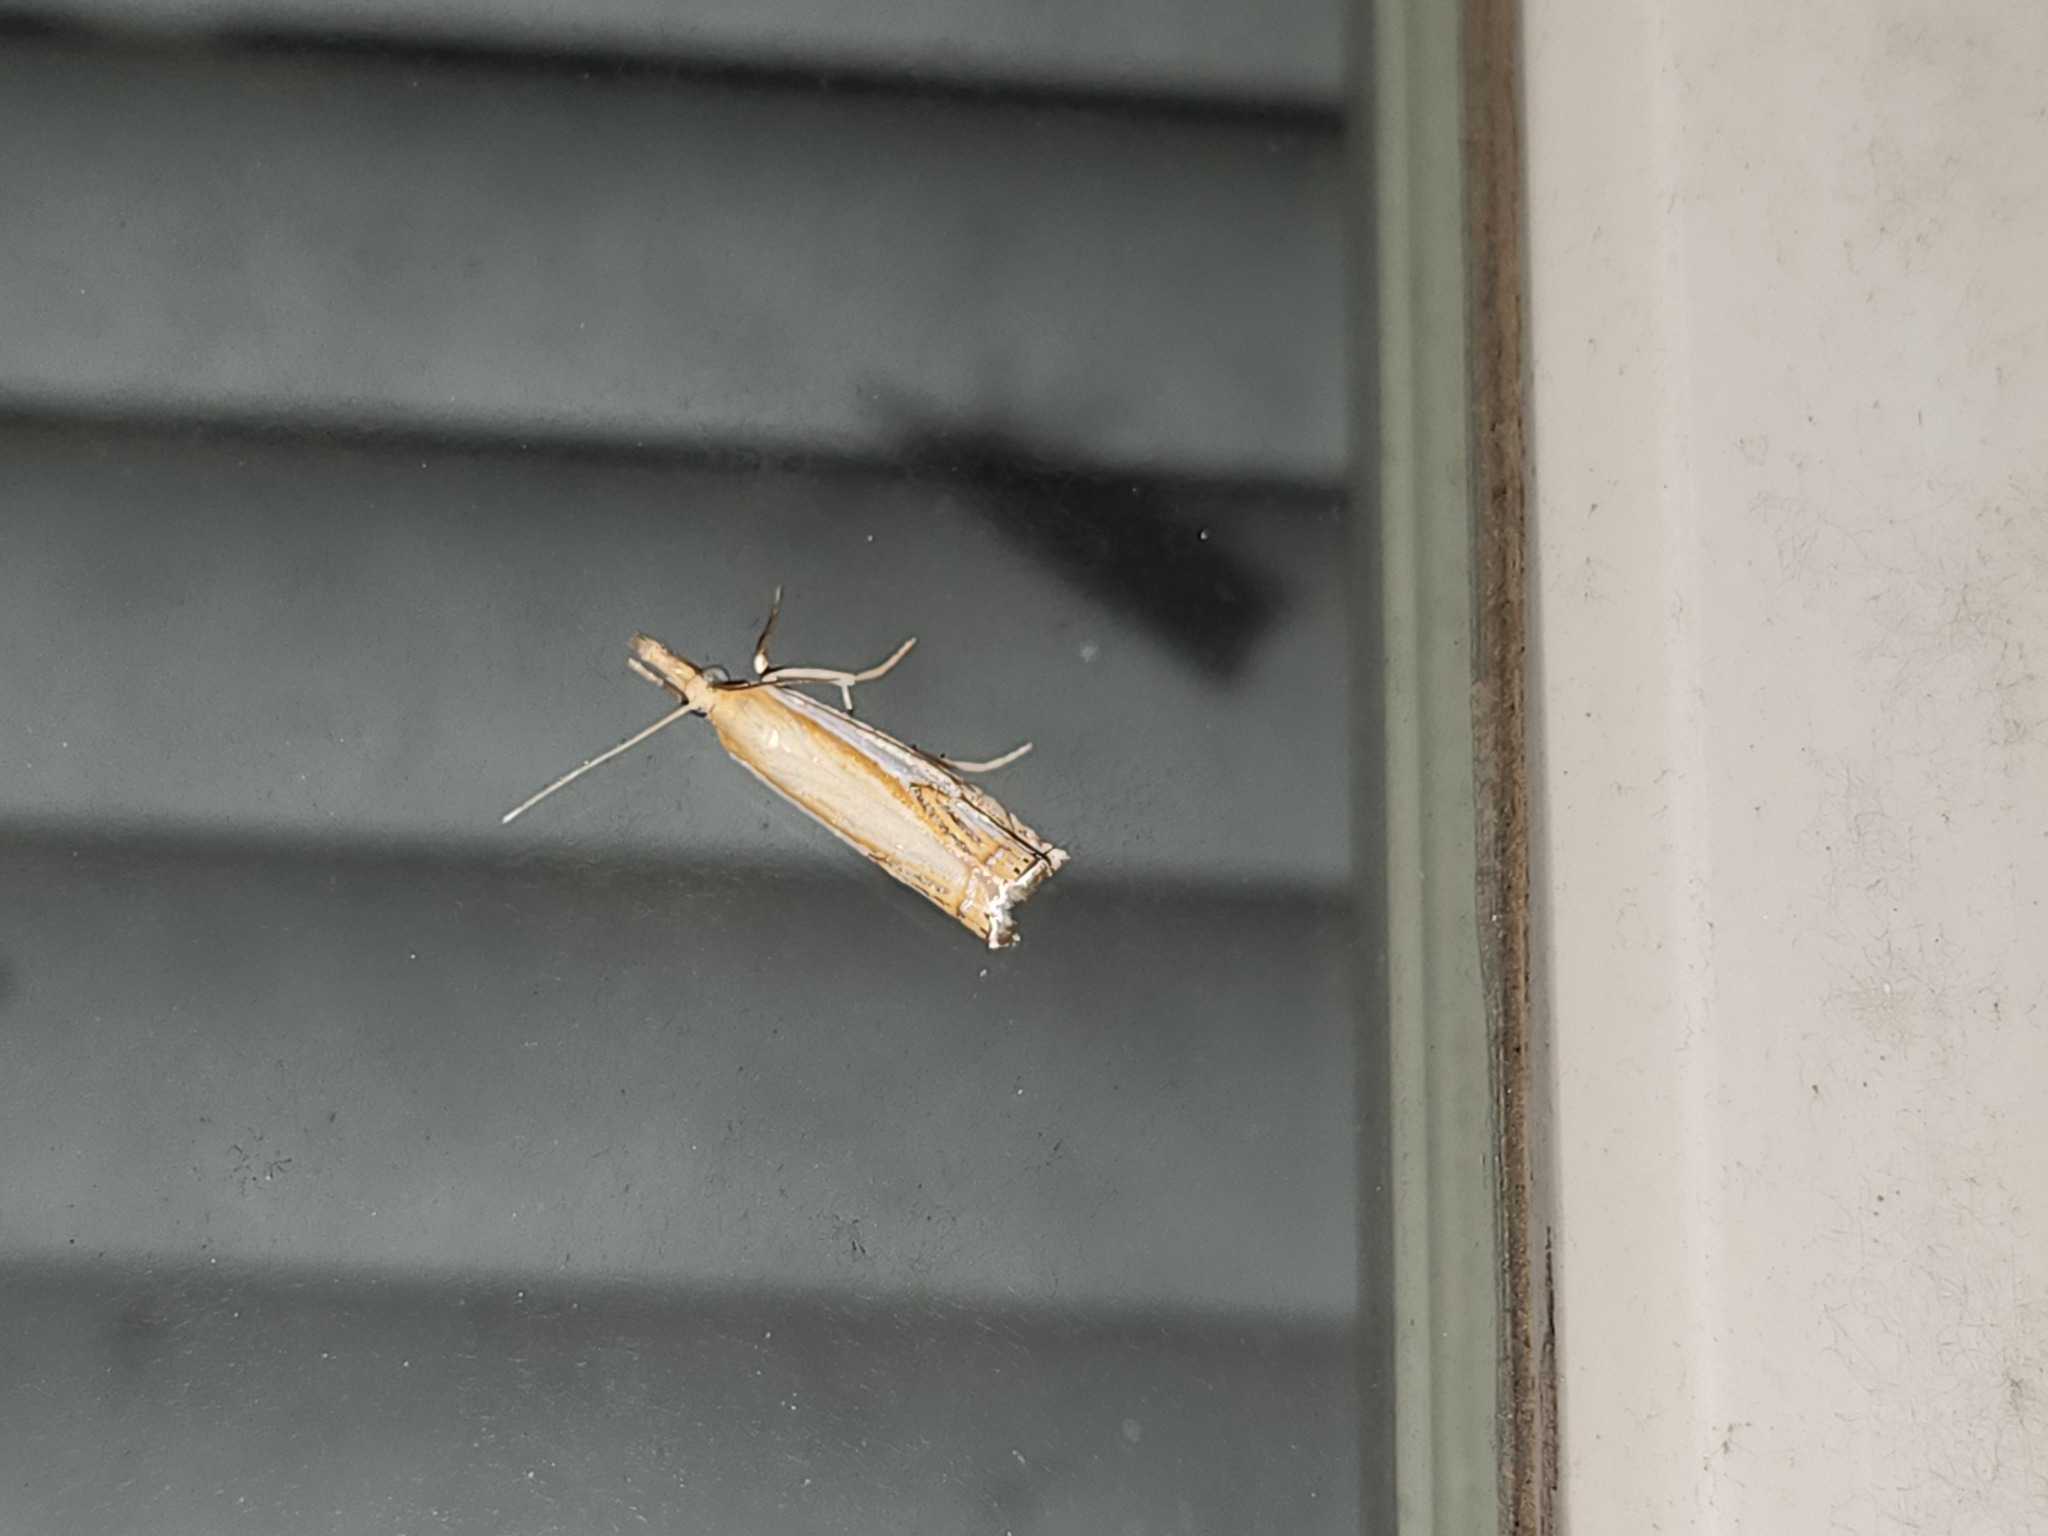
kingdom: Animalia
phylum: Arthropoda
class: Insecta
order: Lepidoptera
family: Crambidae
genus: Crambus
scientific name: Crambus agitatellus
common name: Double-banded grass-veneer
